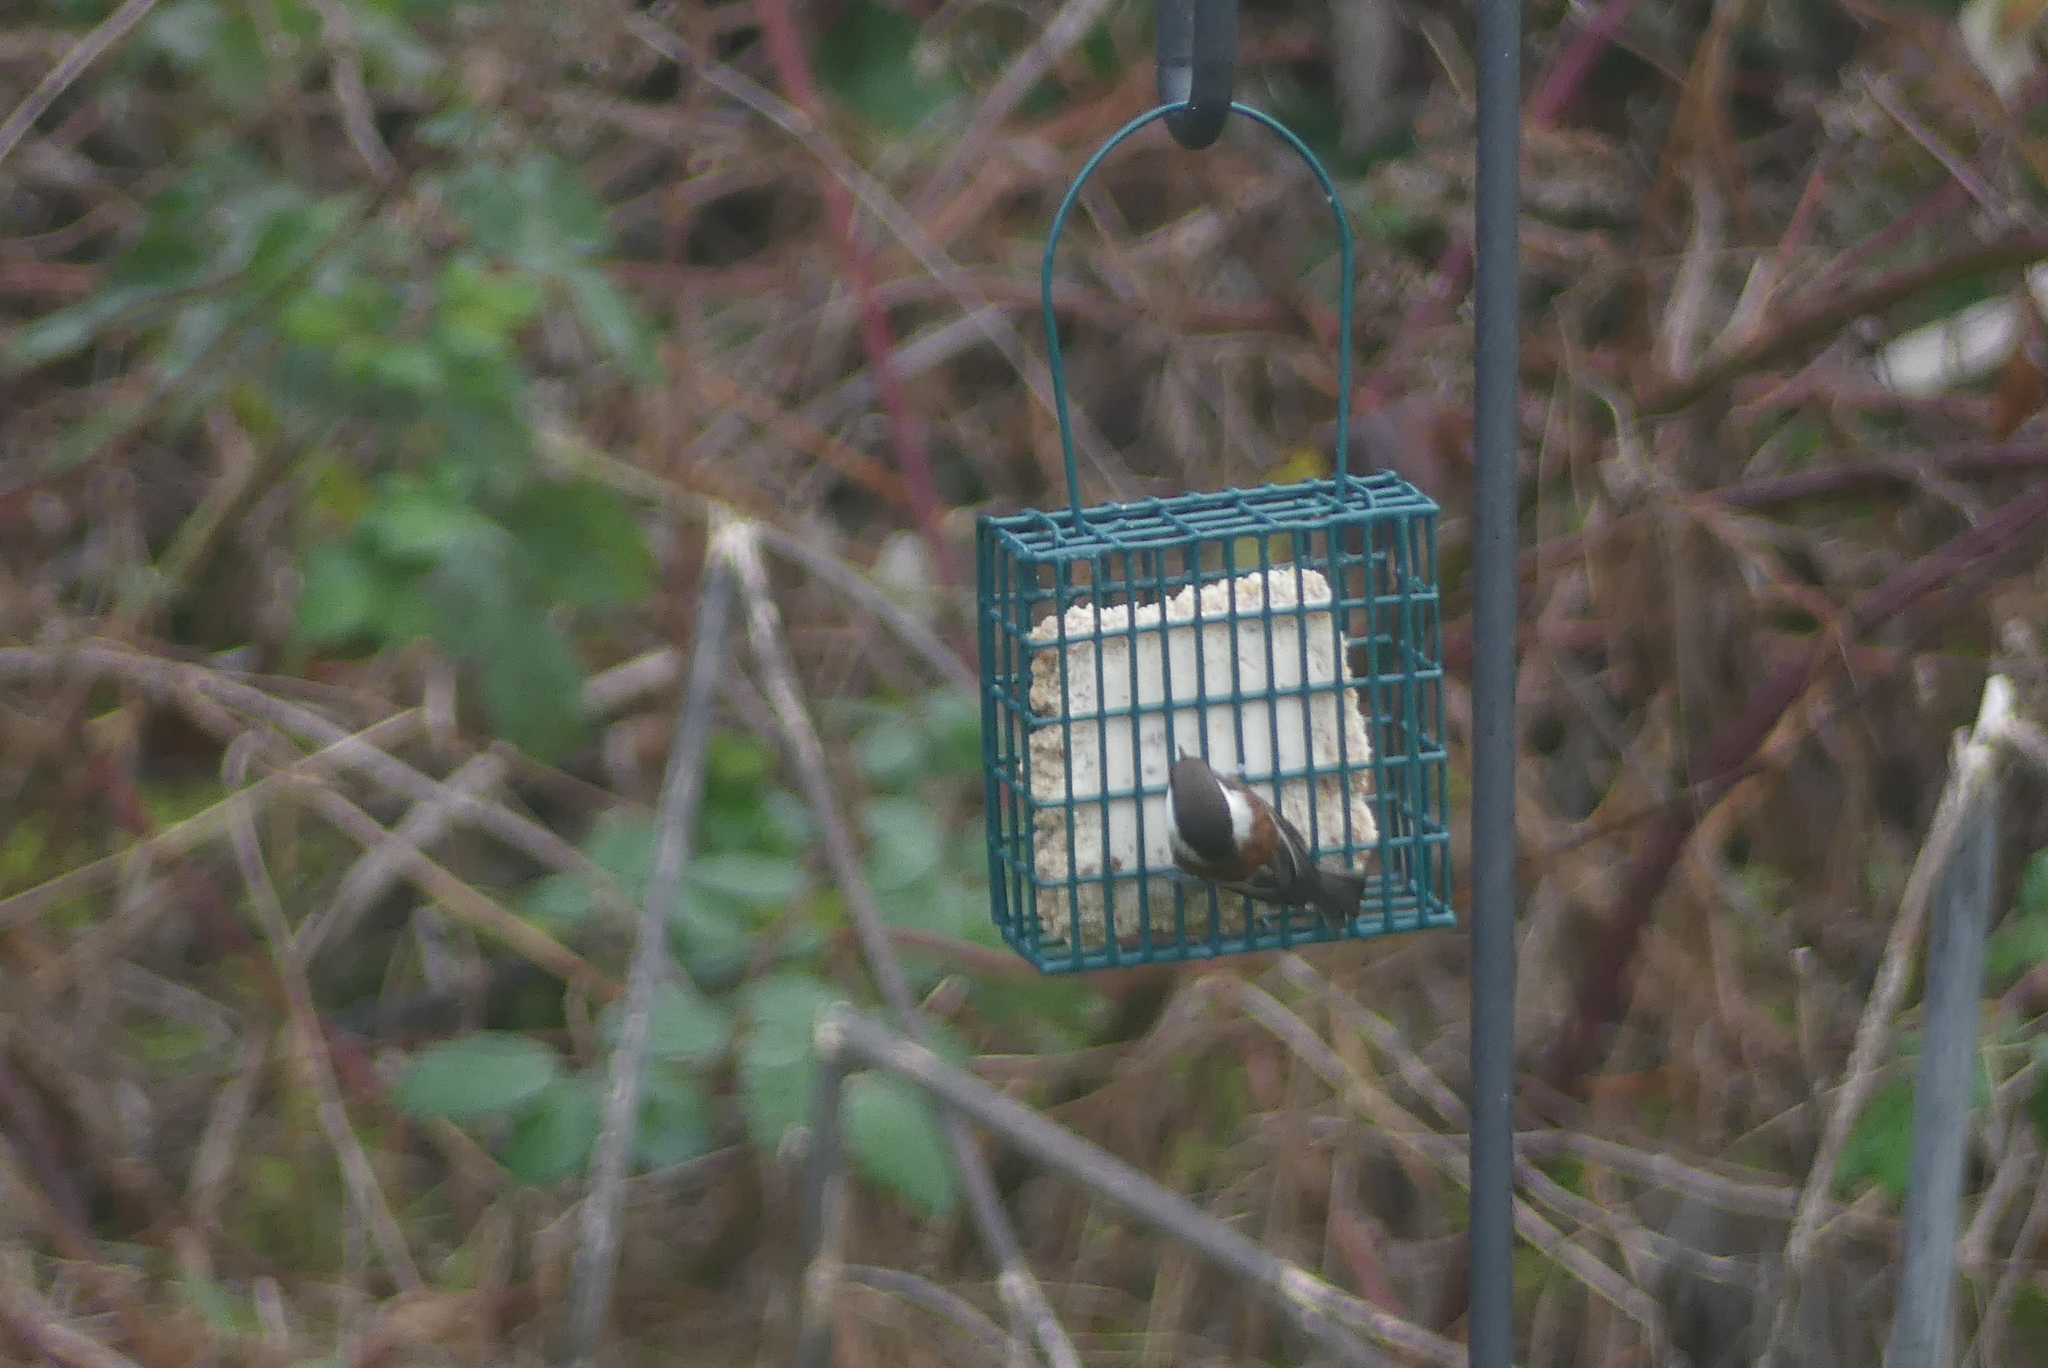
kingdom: Animalia
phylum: Chordata
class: Aves
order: Passeriformes
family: Paridae
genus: Poecile
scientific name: Poecile rufescens
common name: Chestnut-backed chickadee
